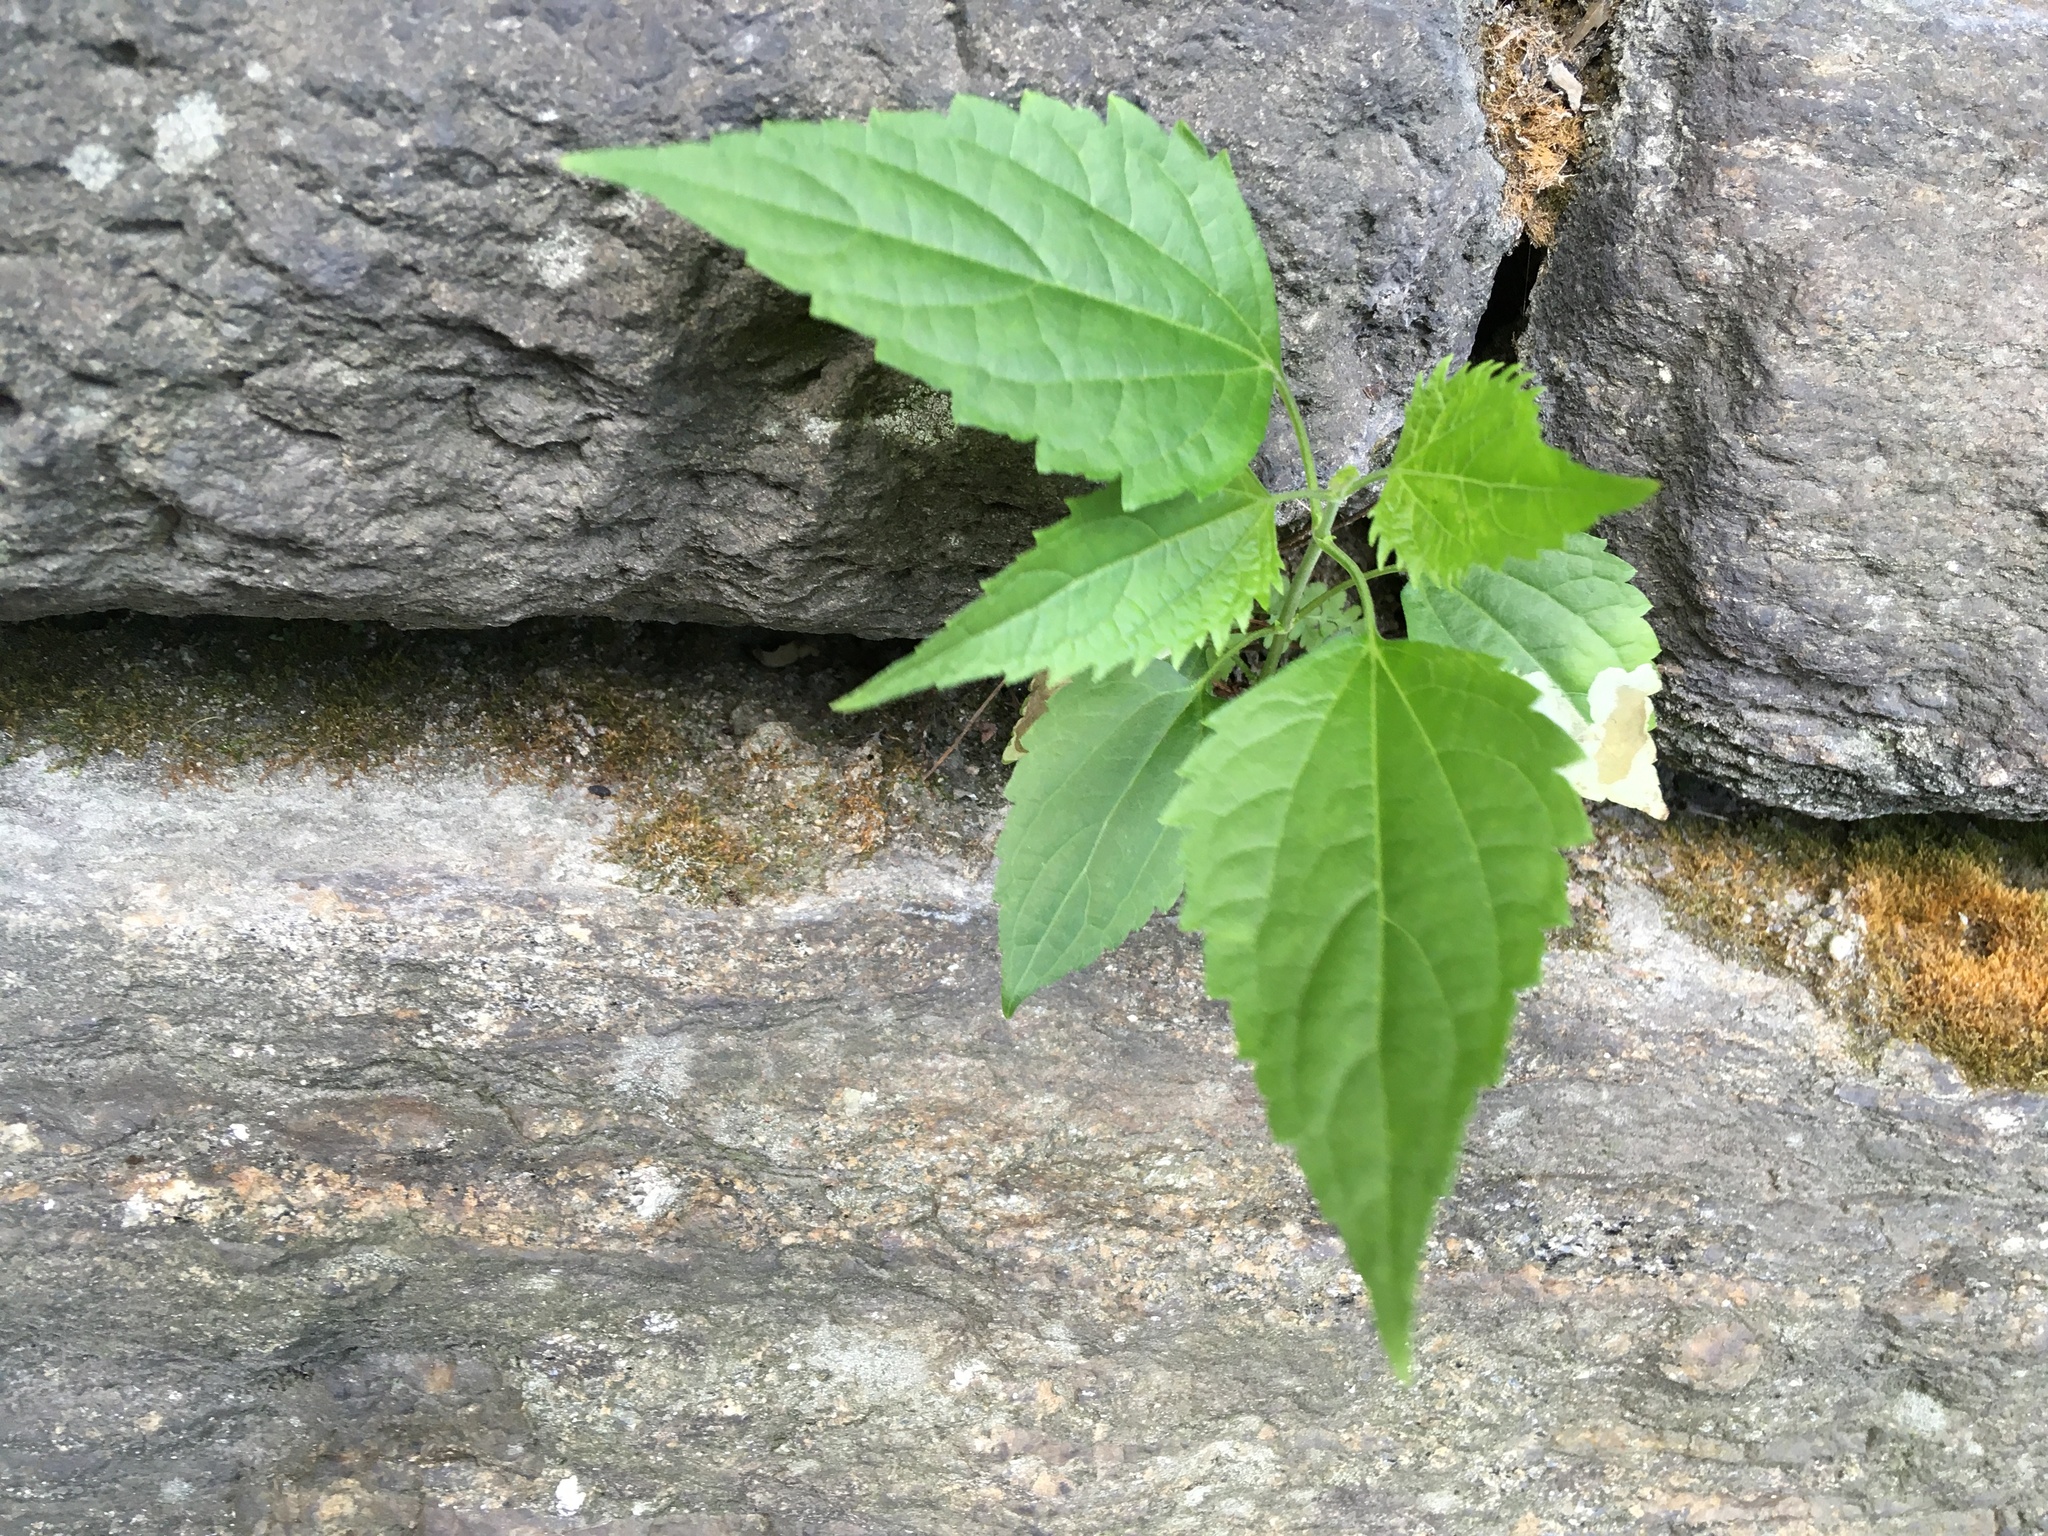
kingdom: Plantae
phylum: Tracheophyta
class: Magnoliopsida
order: Asterales
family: Asteraceae
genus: Ageratina
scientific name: Ageratina altissima
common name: White snakeroot
